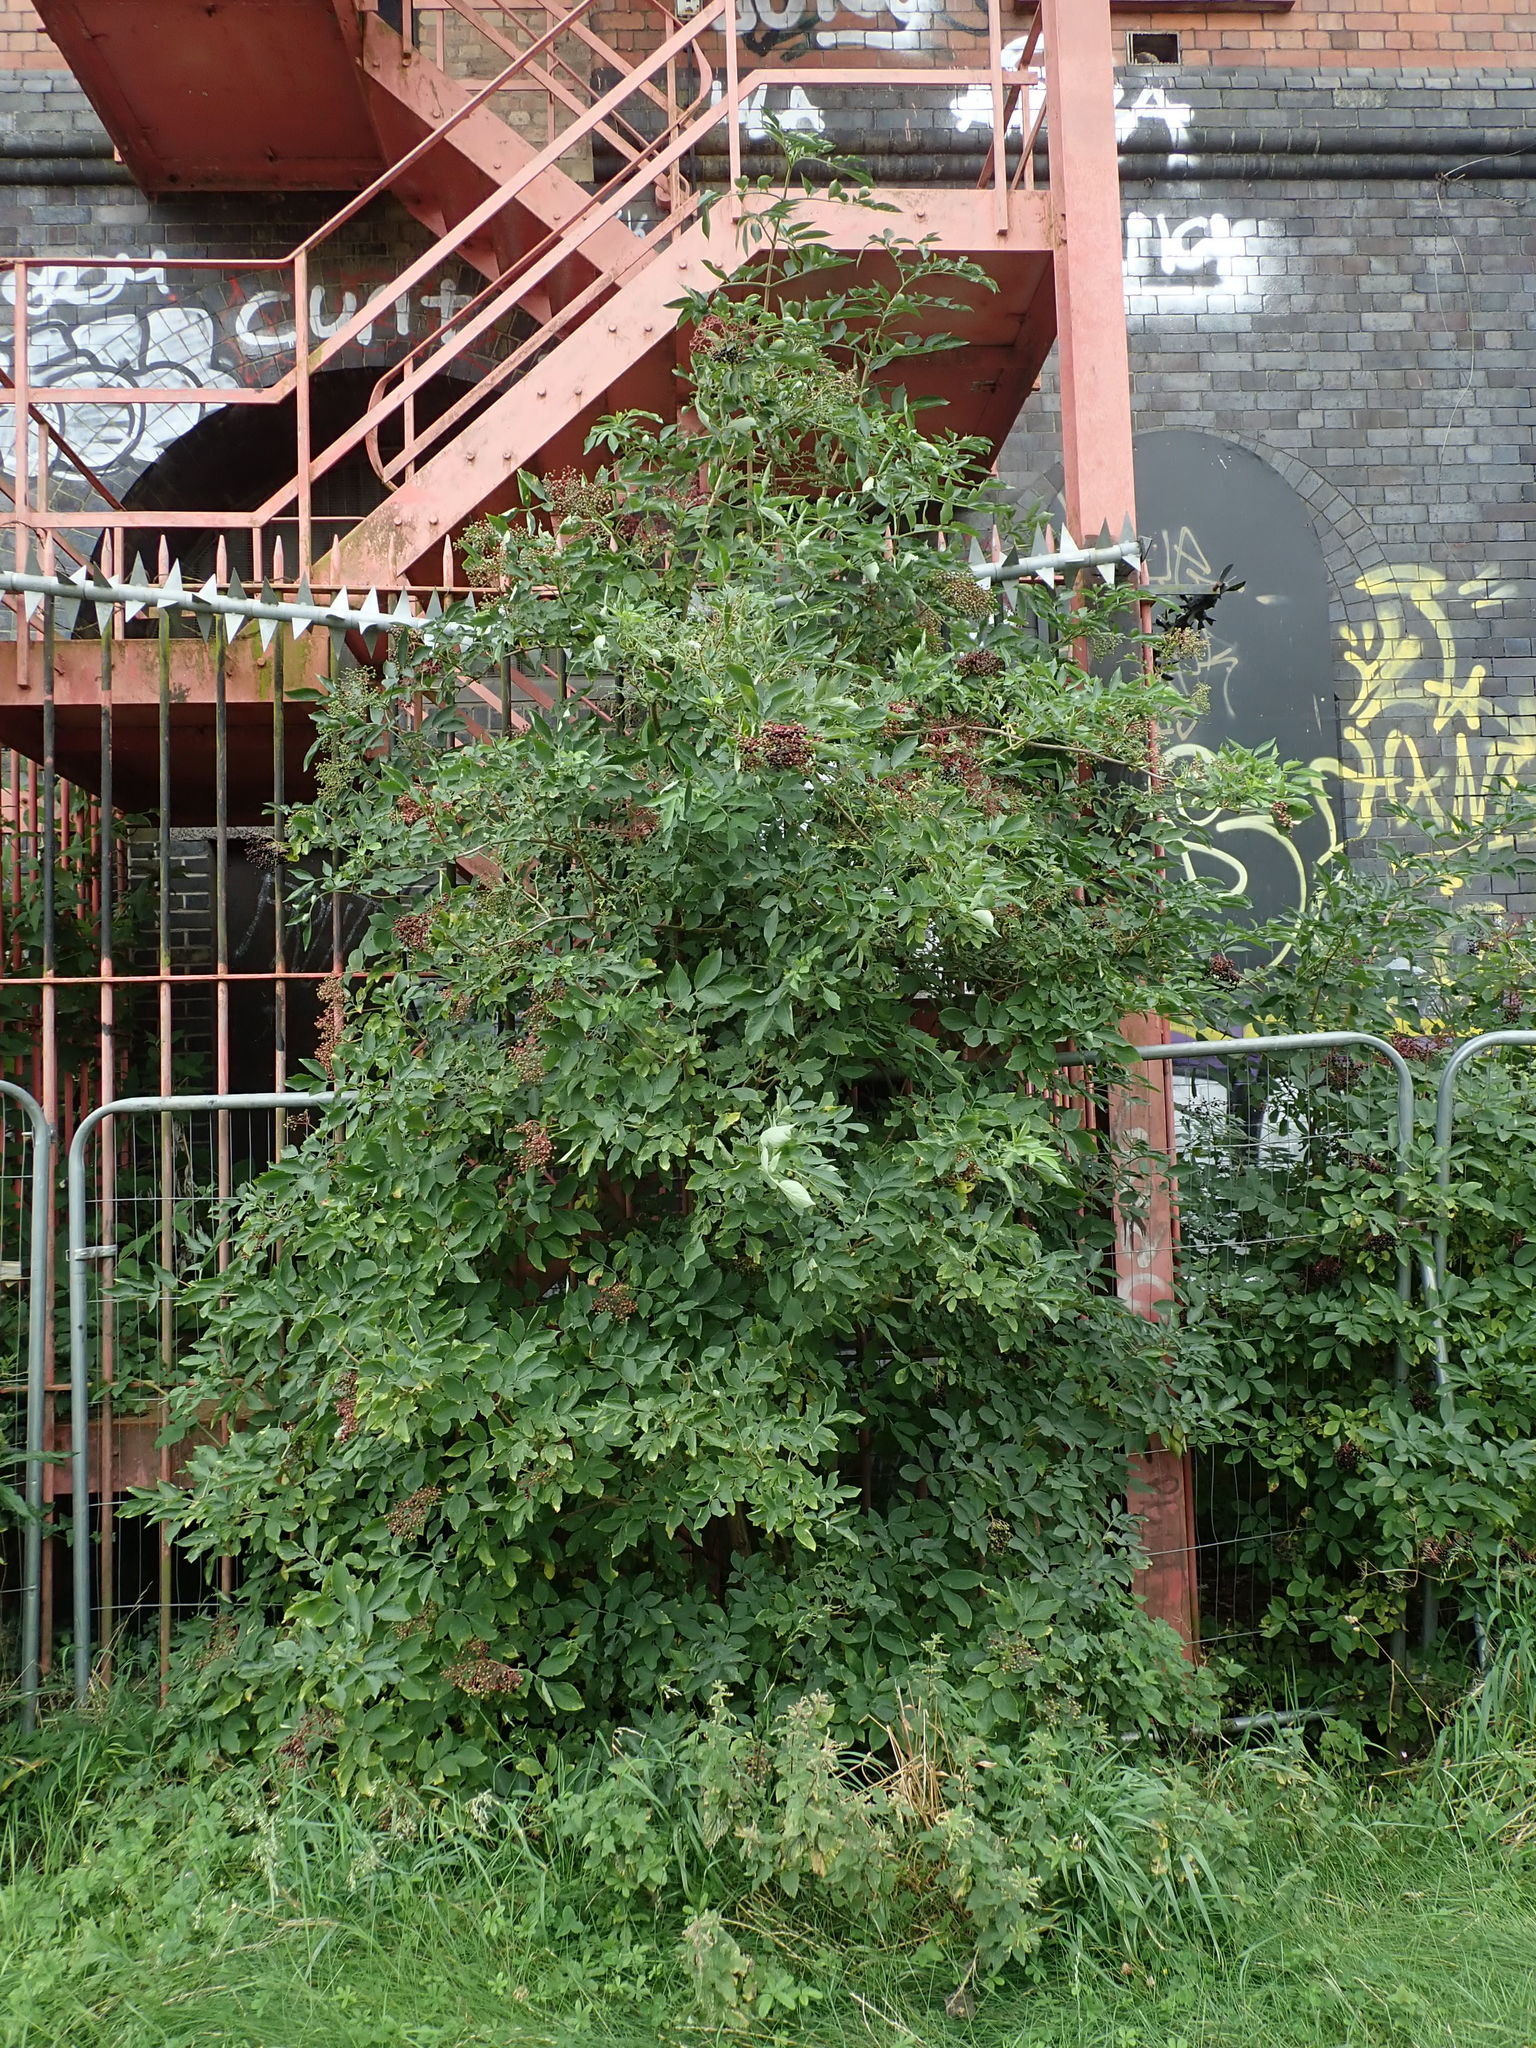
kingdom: Plantae
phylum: Tracheophyta
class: Magnoliopsida
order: Dipsacales
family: Viburnaceae
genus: Sambucus
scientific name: Sambucus nigra
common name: Elder
